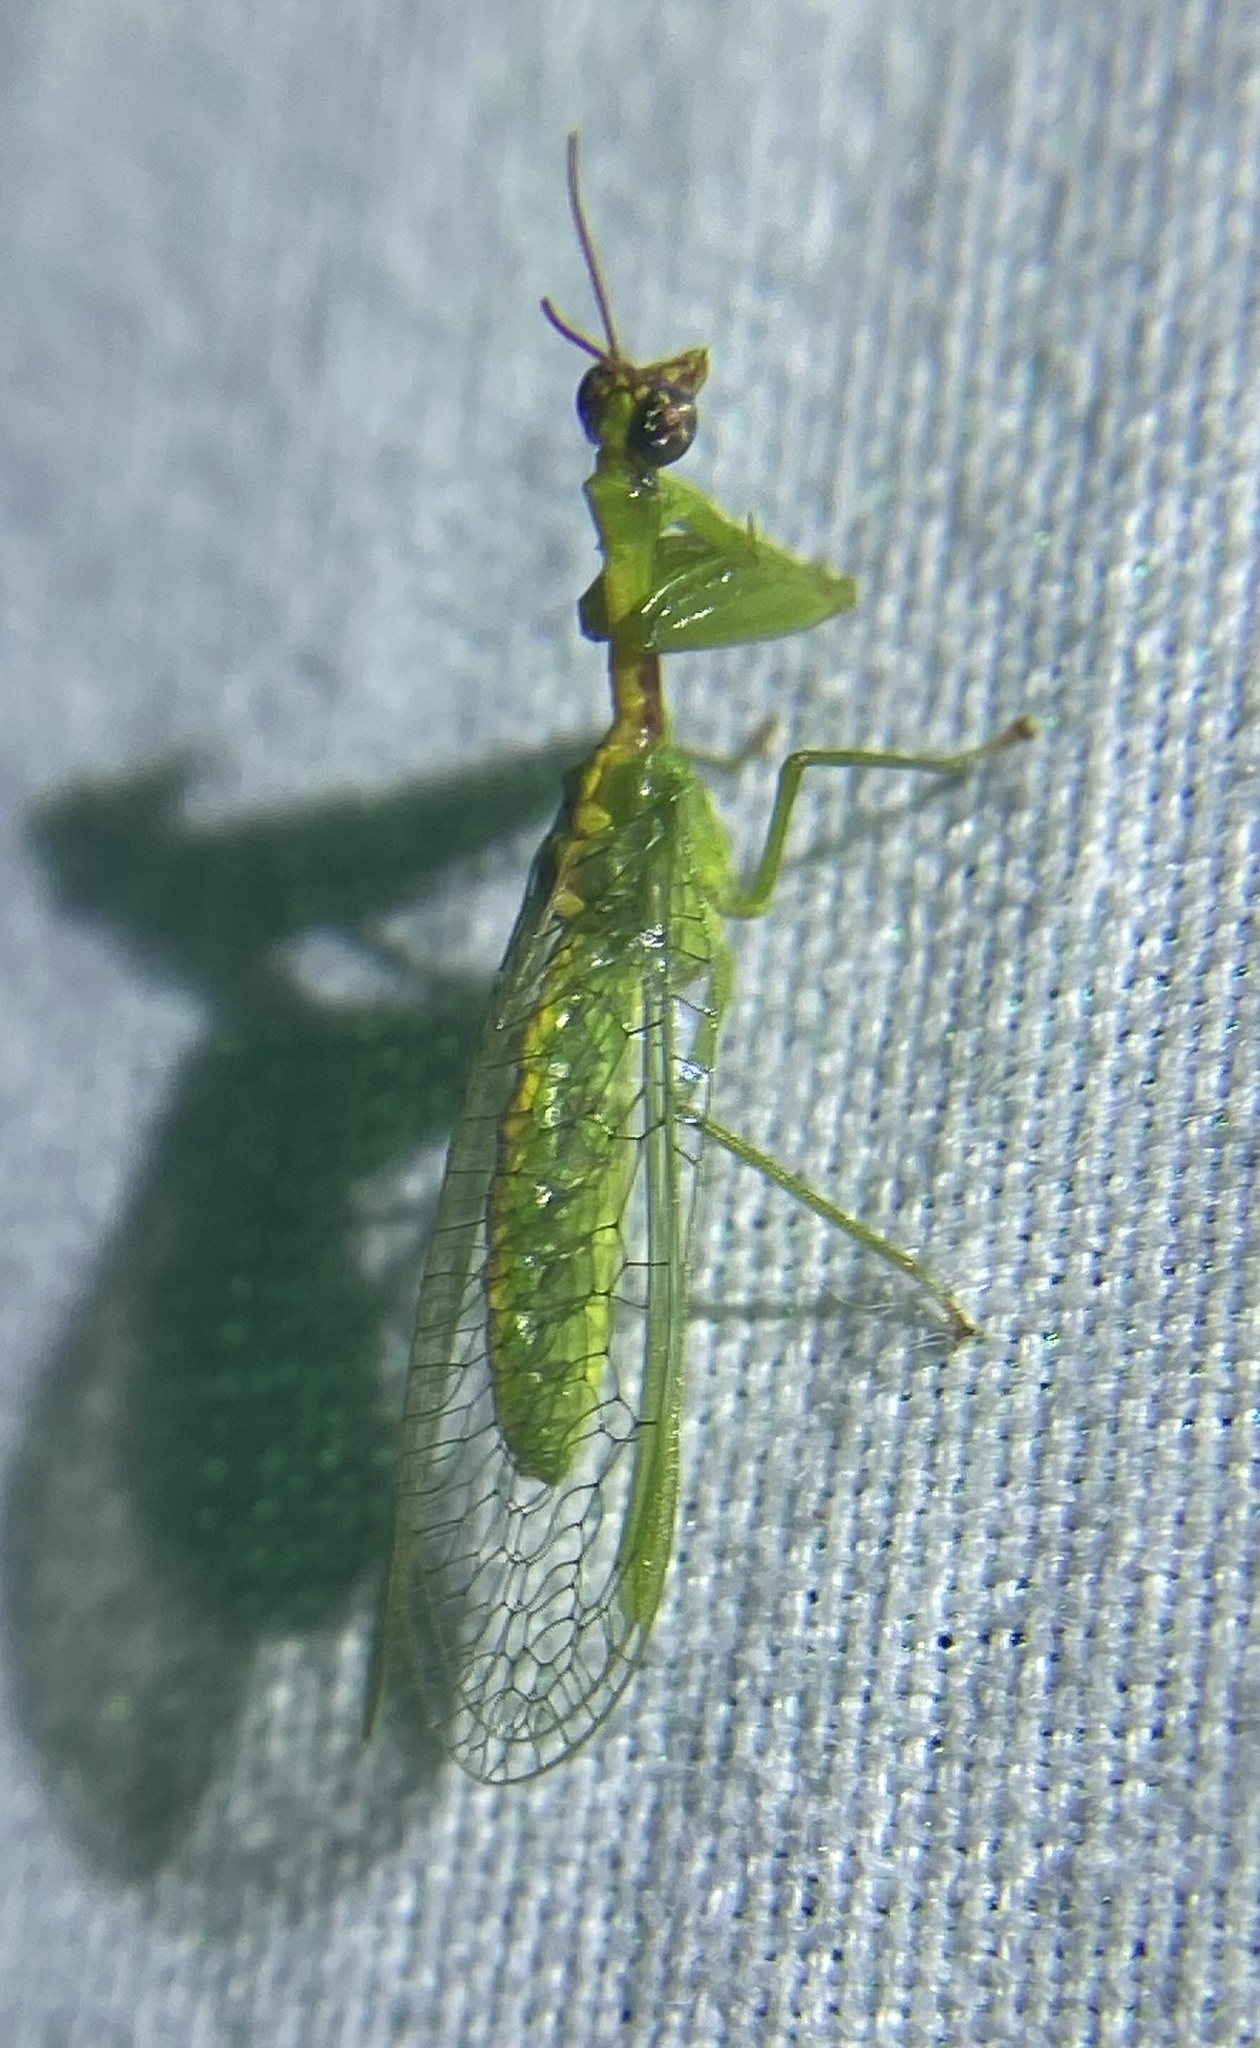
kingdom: Animalia
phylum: Arthropoda
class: Insecta
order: Neuroptera
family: Mantispidae
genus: Zeugomantispa
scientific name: Zeugomantispa minuta
